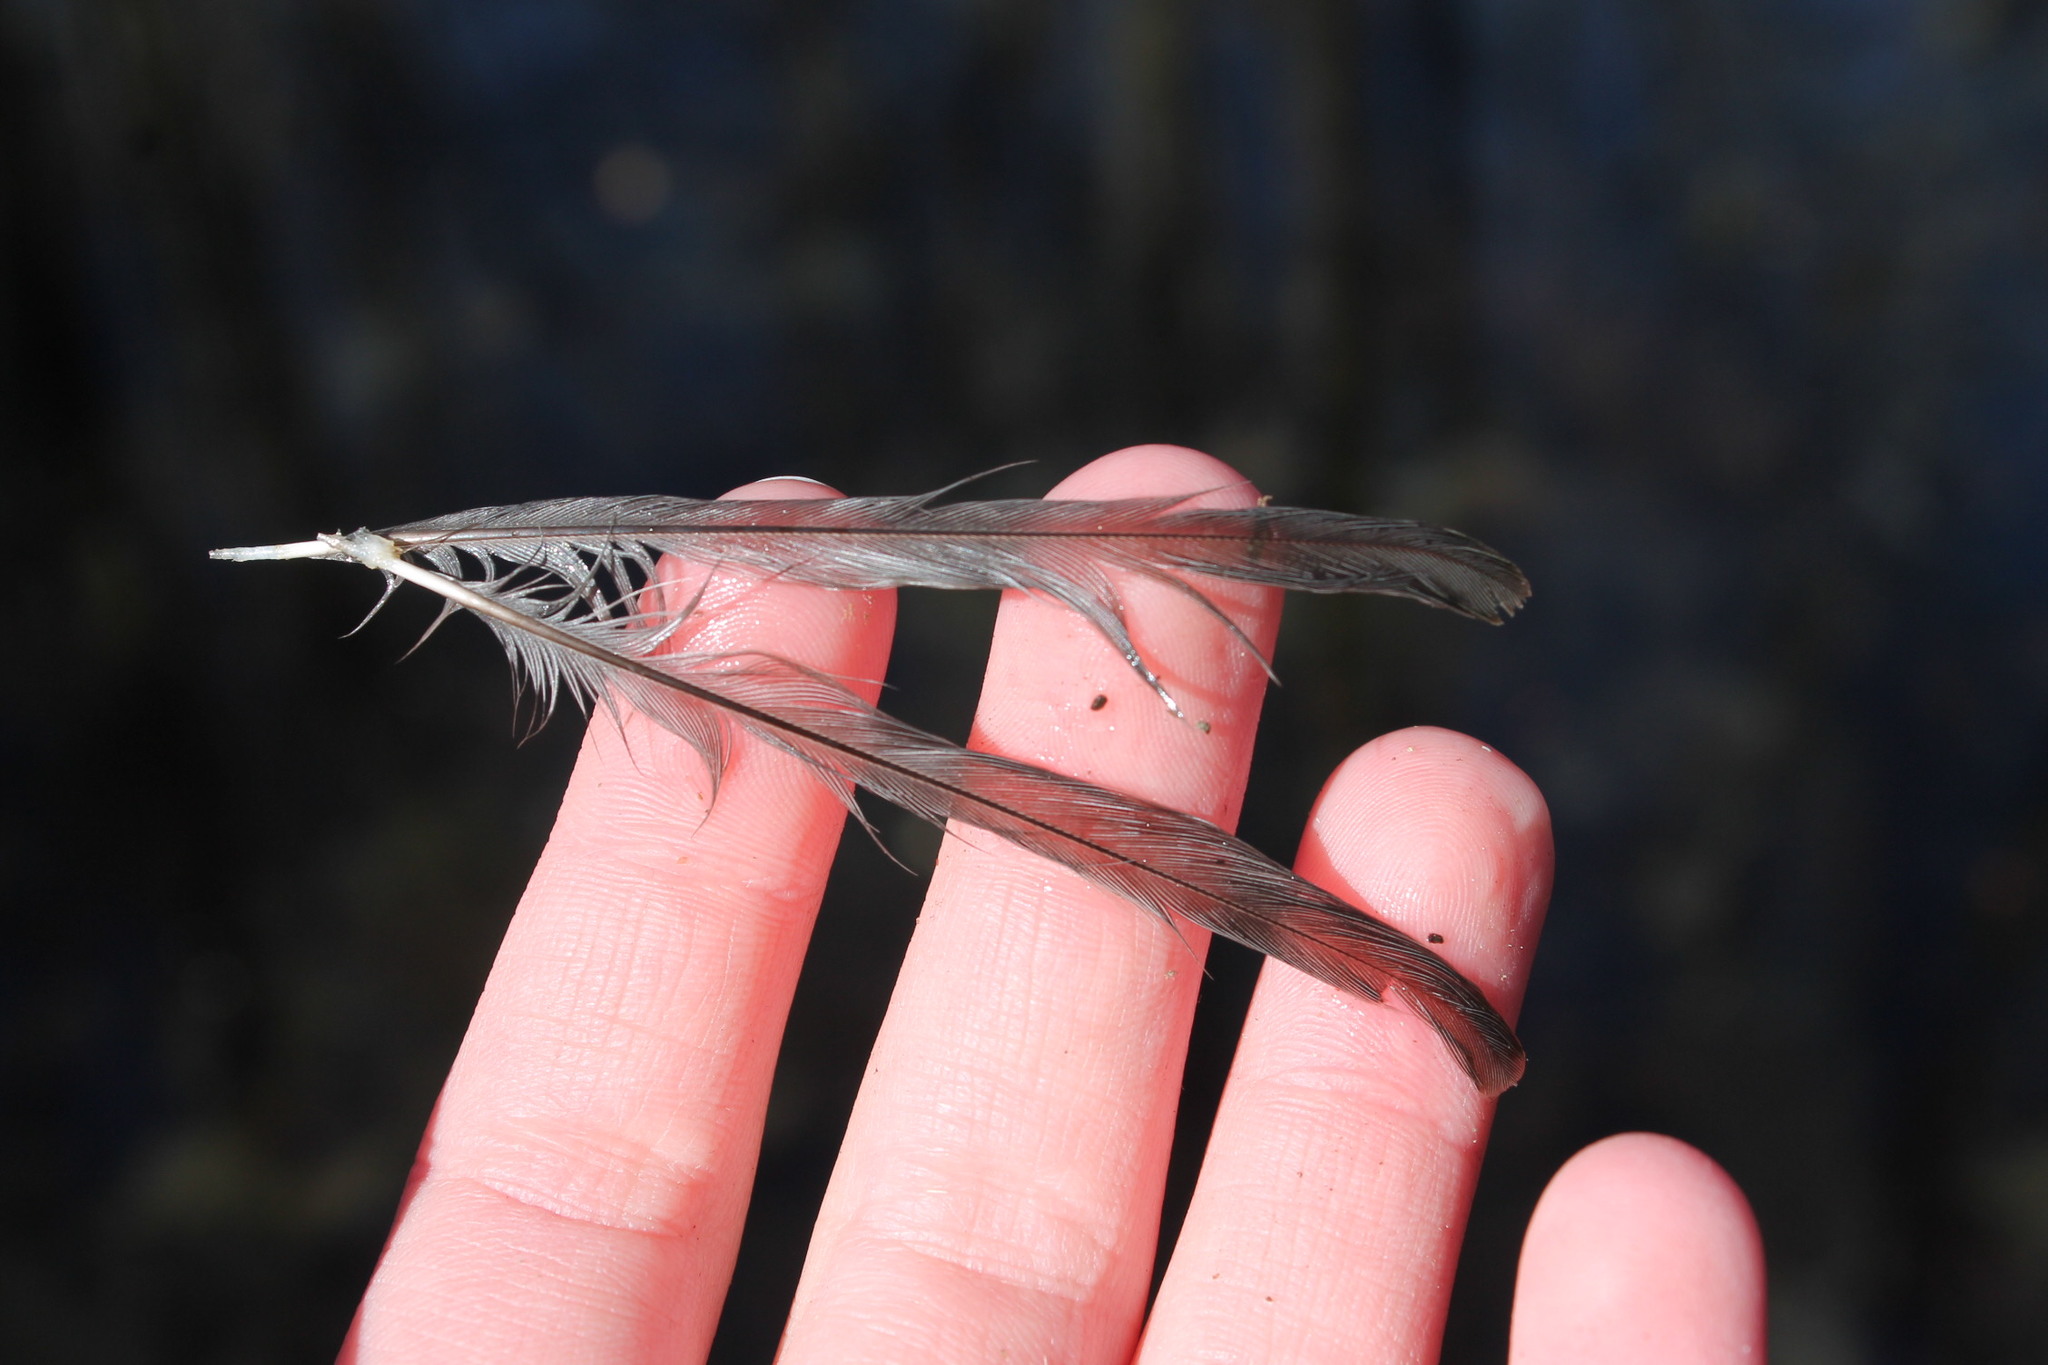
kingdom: Animalia
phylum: Chordata
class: Aves
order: Passeriformes
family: Paridae
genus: Baeolophus
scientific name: Baeolophus bicolor
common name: Tufted titmouse
